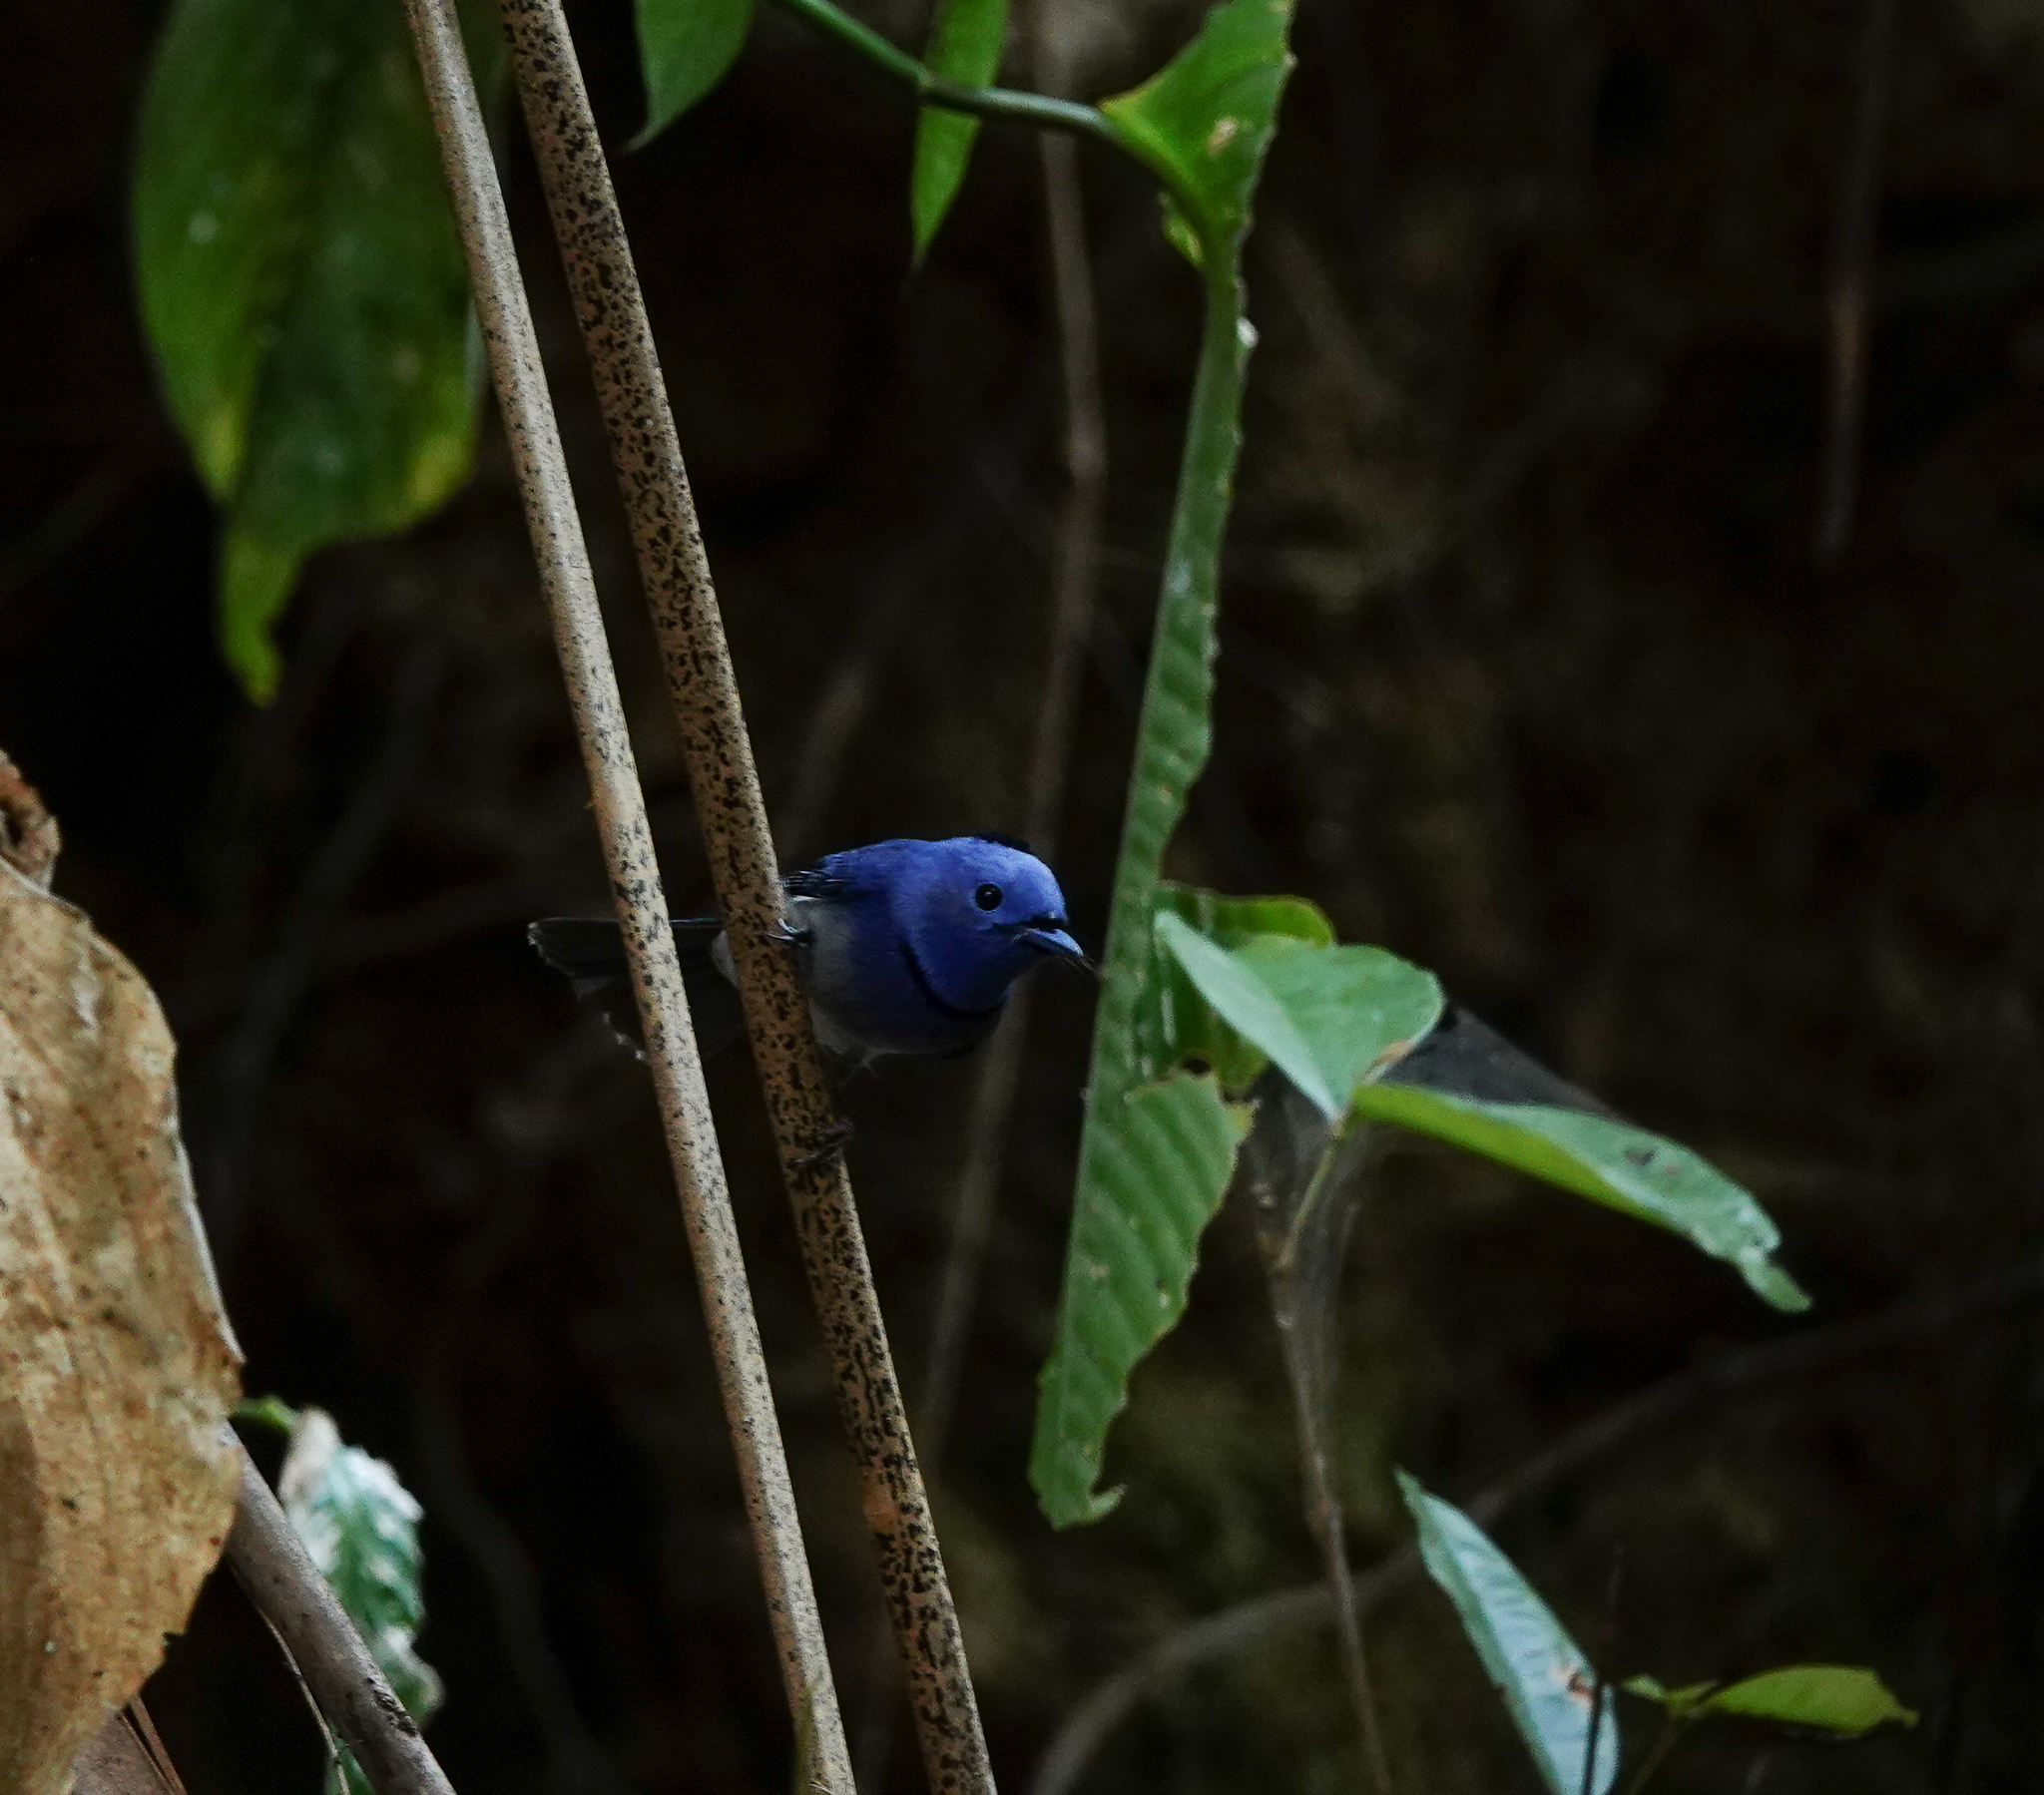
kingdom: Animalia
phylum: Chordata
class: Aves
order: Passeriformes
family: Monarchidae
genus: Hypothymis
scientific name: Hypothymis azurea
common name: Black-naped monarch
